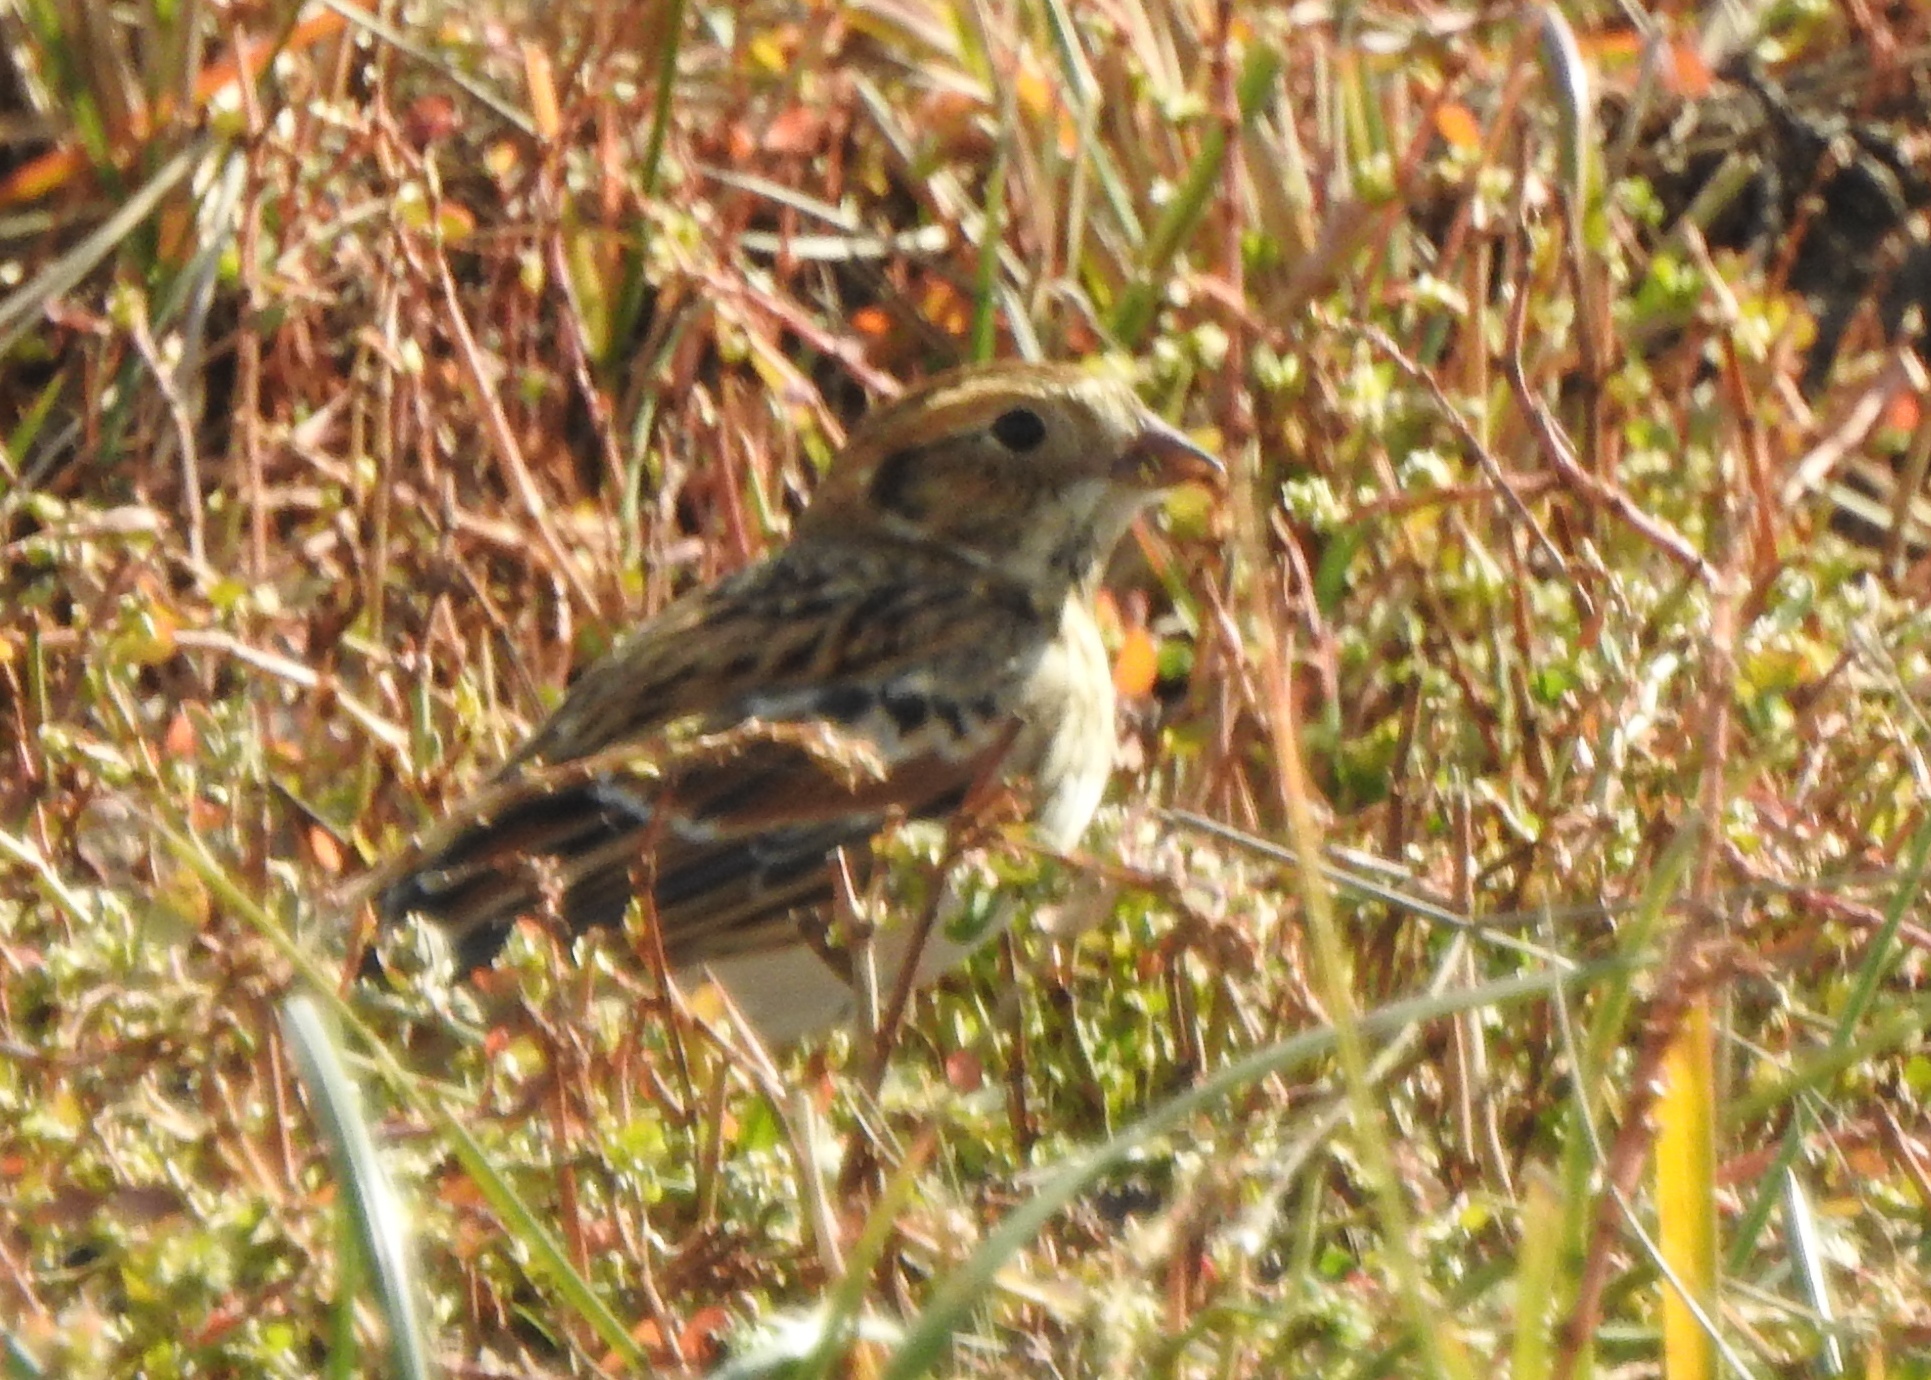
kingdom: Animalia
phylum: Chordata
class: Aves
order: Passeriformes
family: Calcariidae
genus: Calcarius
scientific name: Calcarius lapponicus
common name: Lapland longspur
